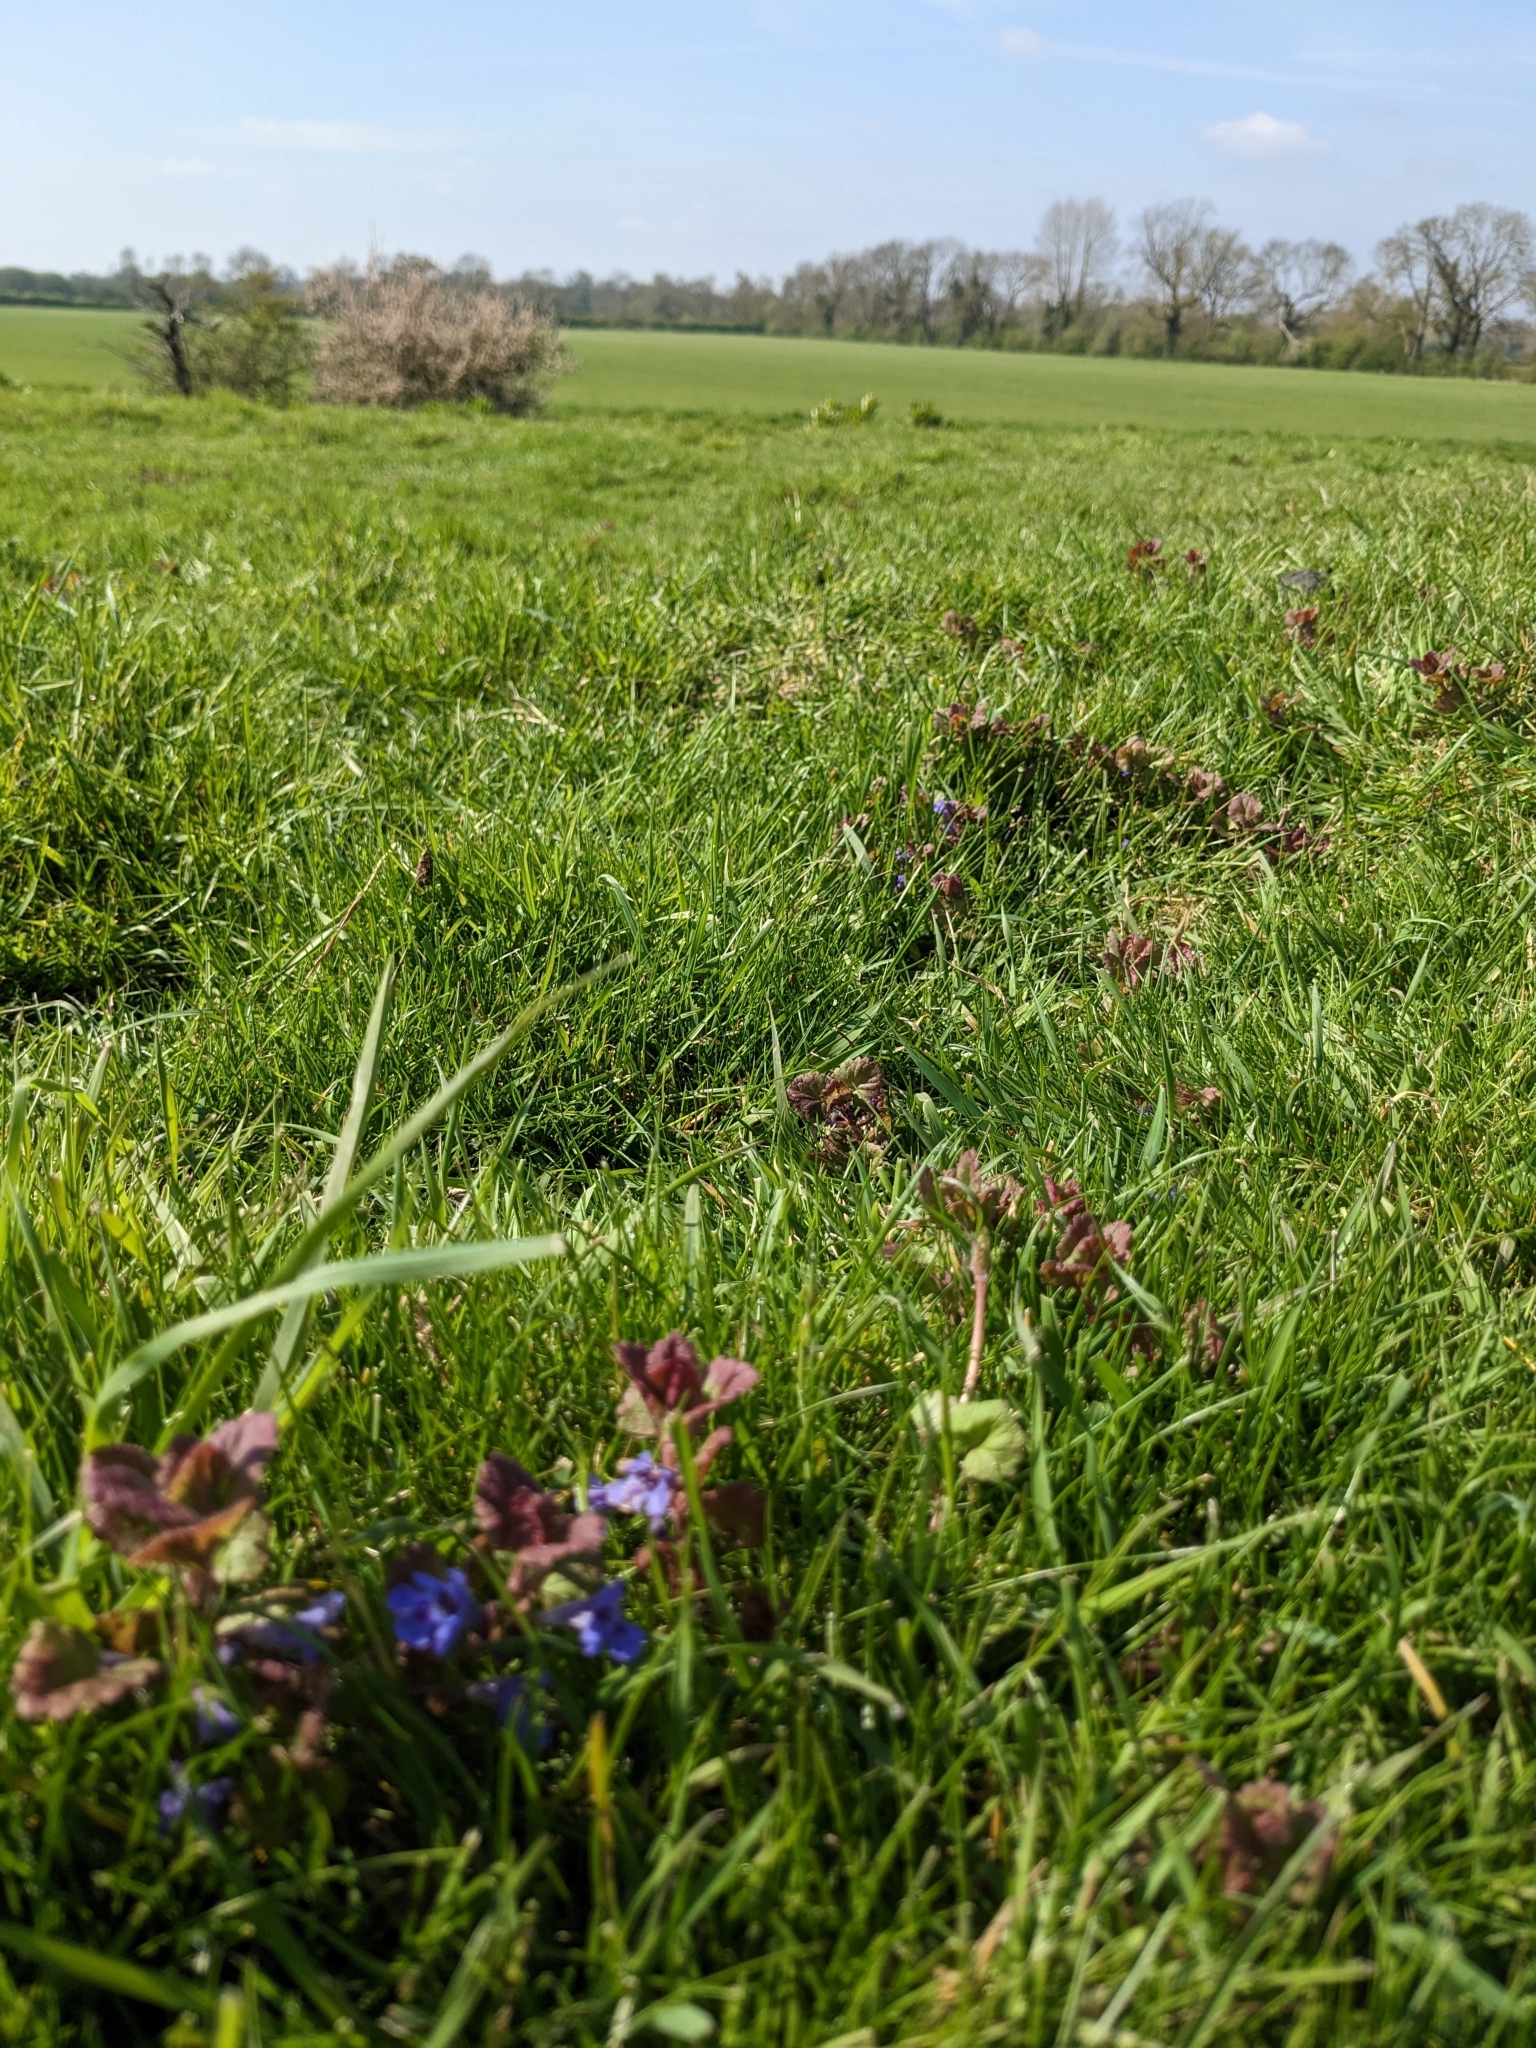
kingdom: Plantae
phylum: Tracheophyta
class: Magnoliopsida
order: Lamiales
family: Lamiaceae
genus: Glechoma
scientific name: Glechoma hederacea
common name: Ground ivy
